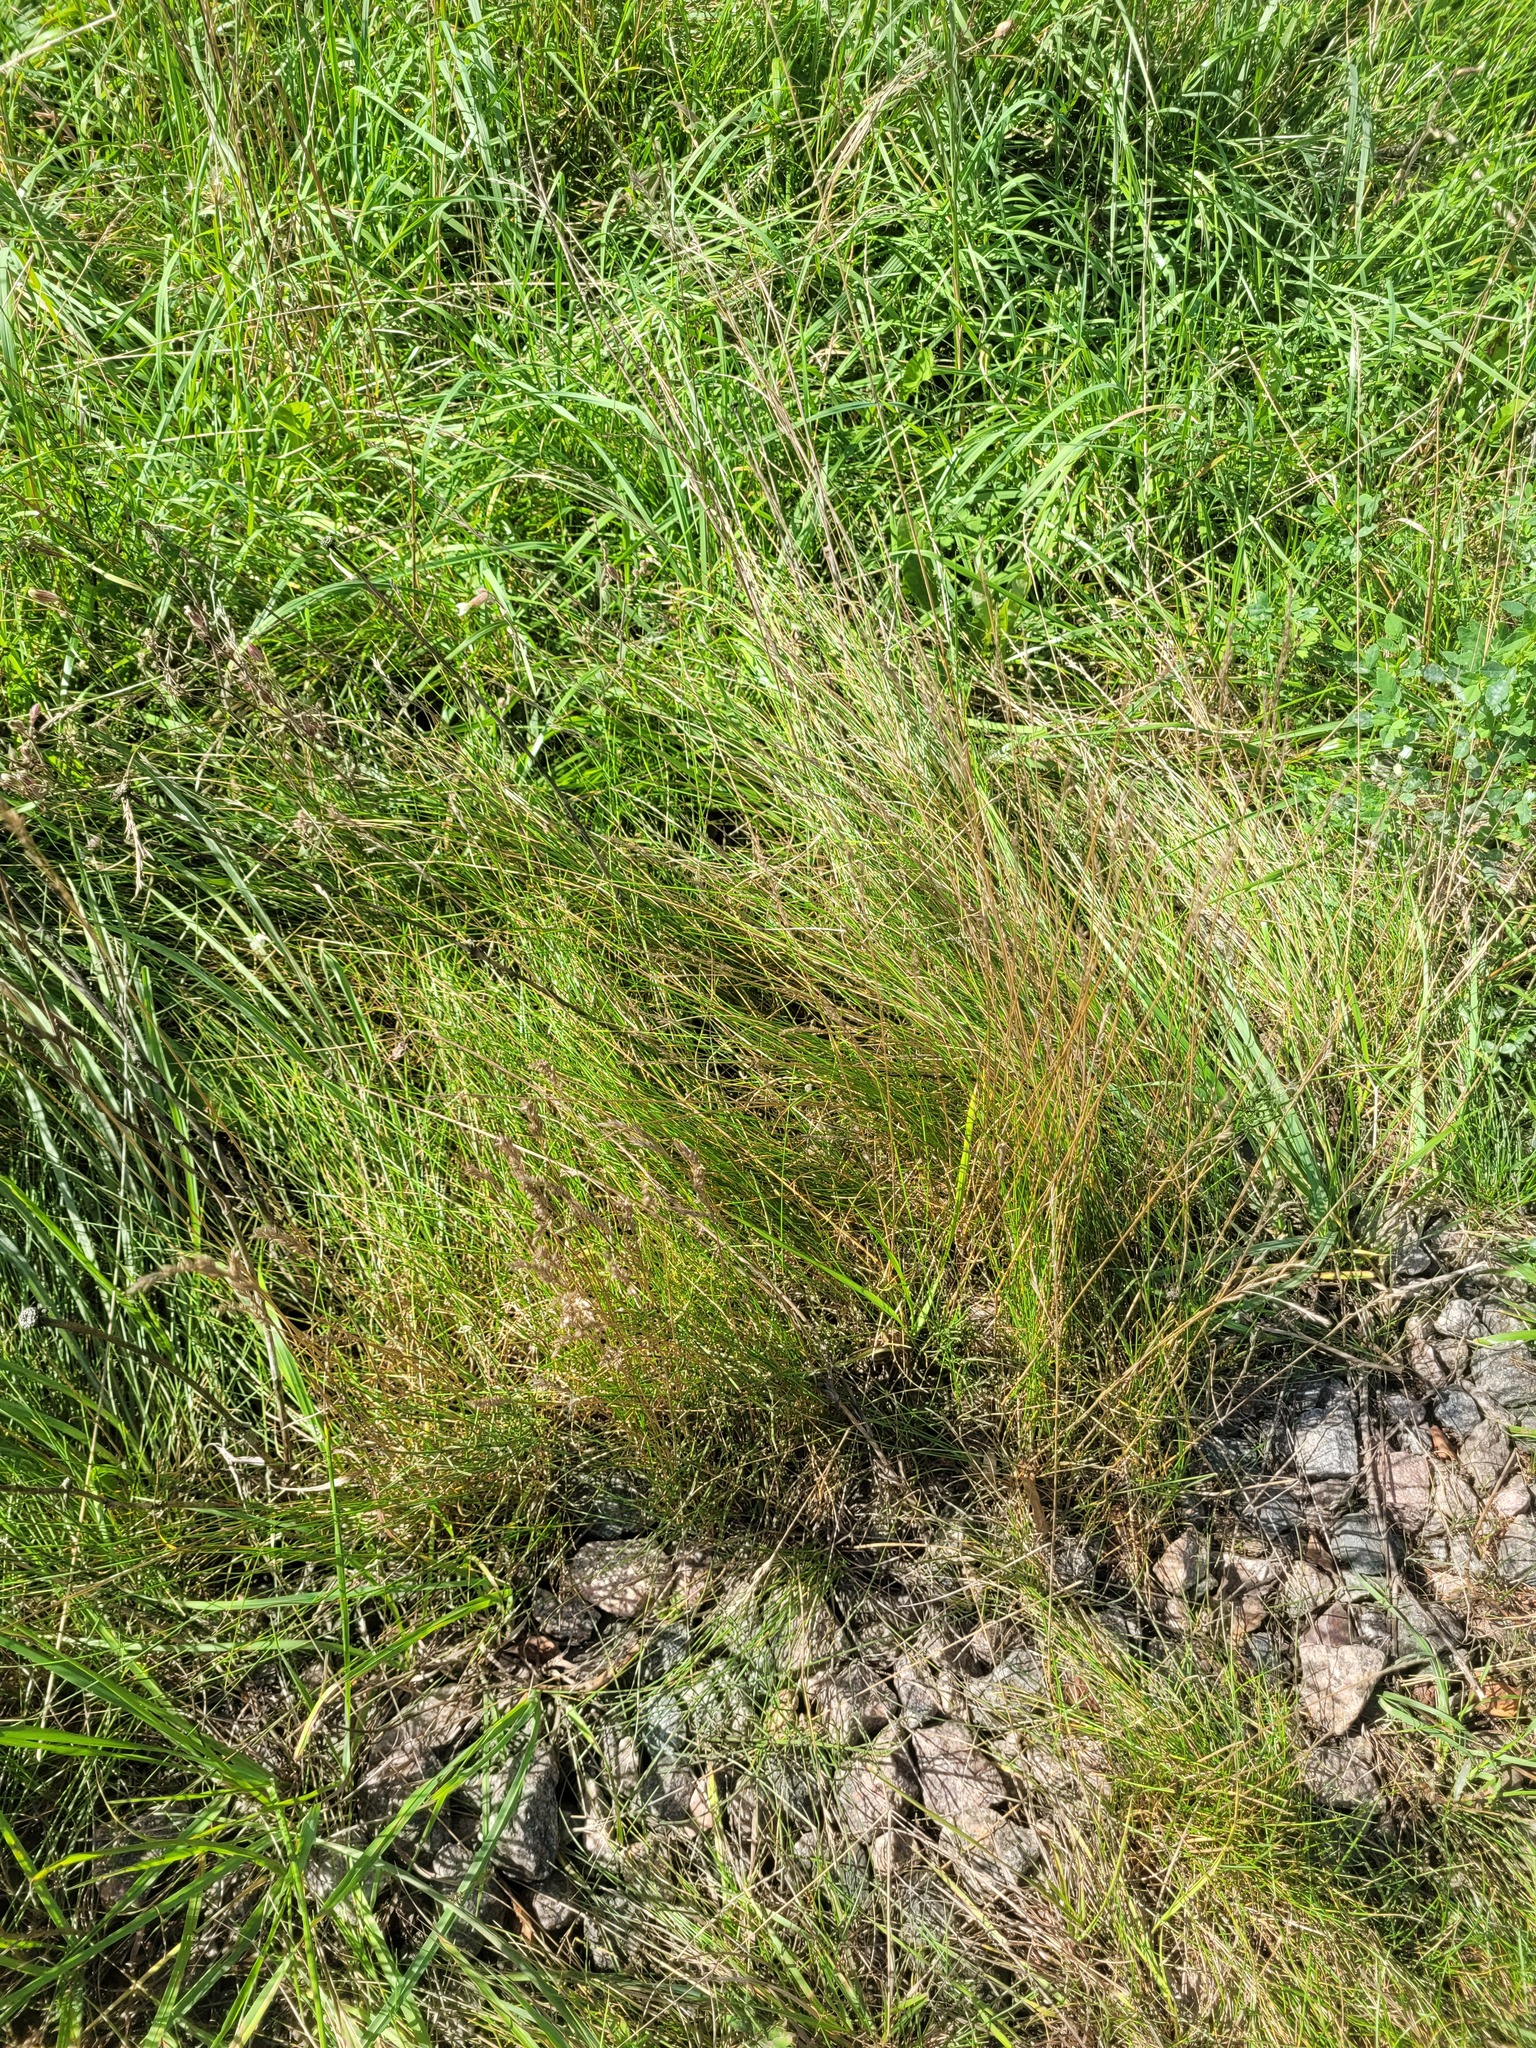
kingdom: Plantae
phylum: Tracheophyta
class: Liliopsida
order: Poales
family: Poaceae
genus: Festuca
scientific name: Festuca rubra
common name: Red fescue
